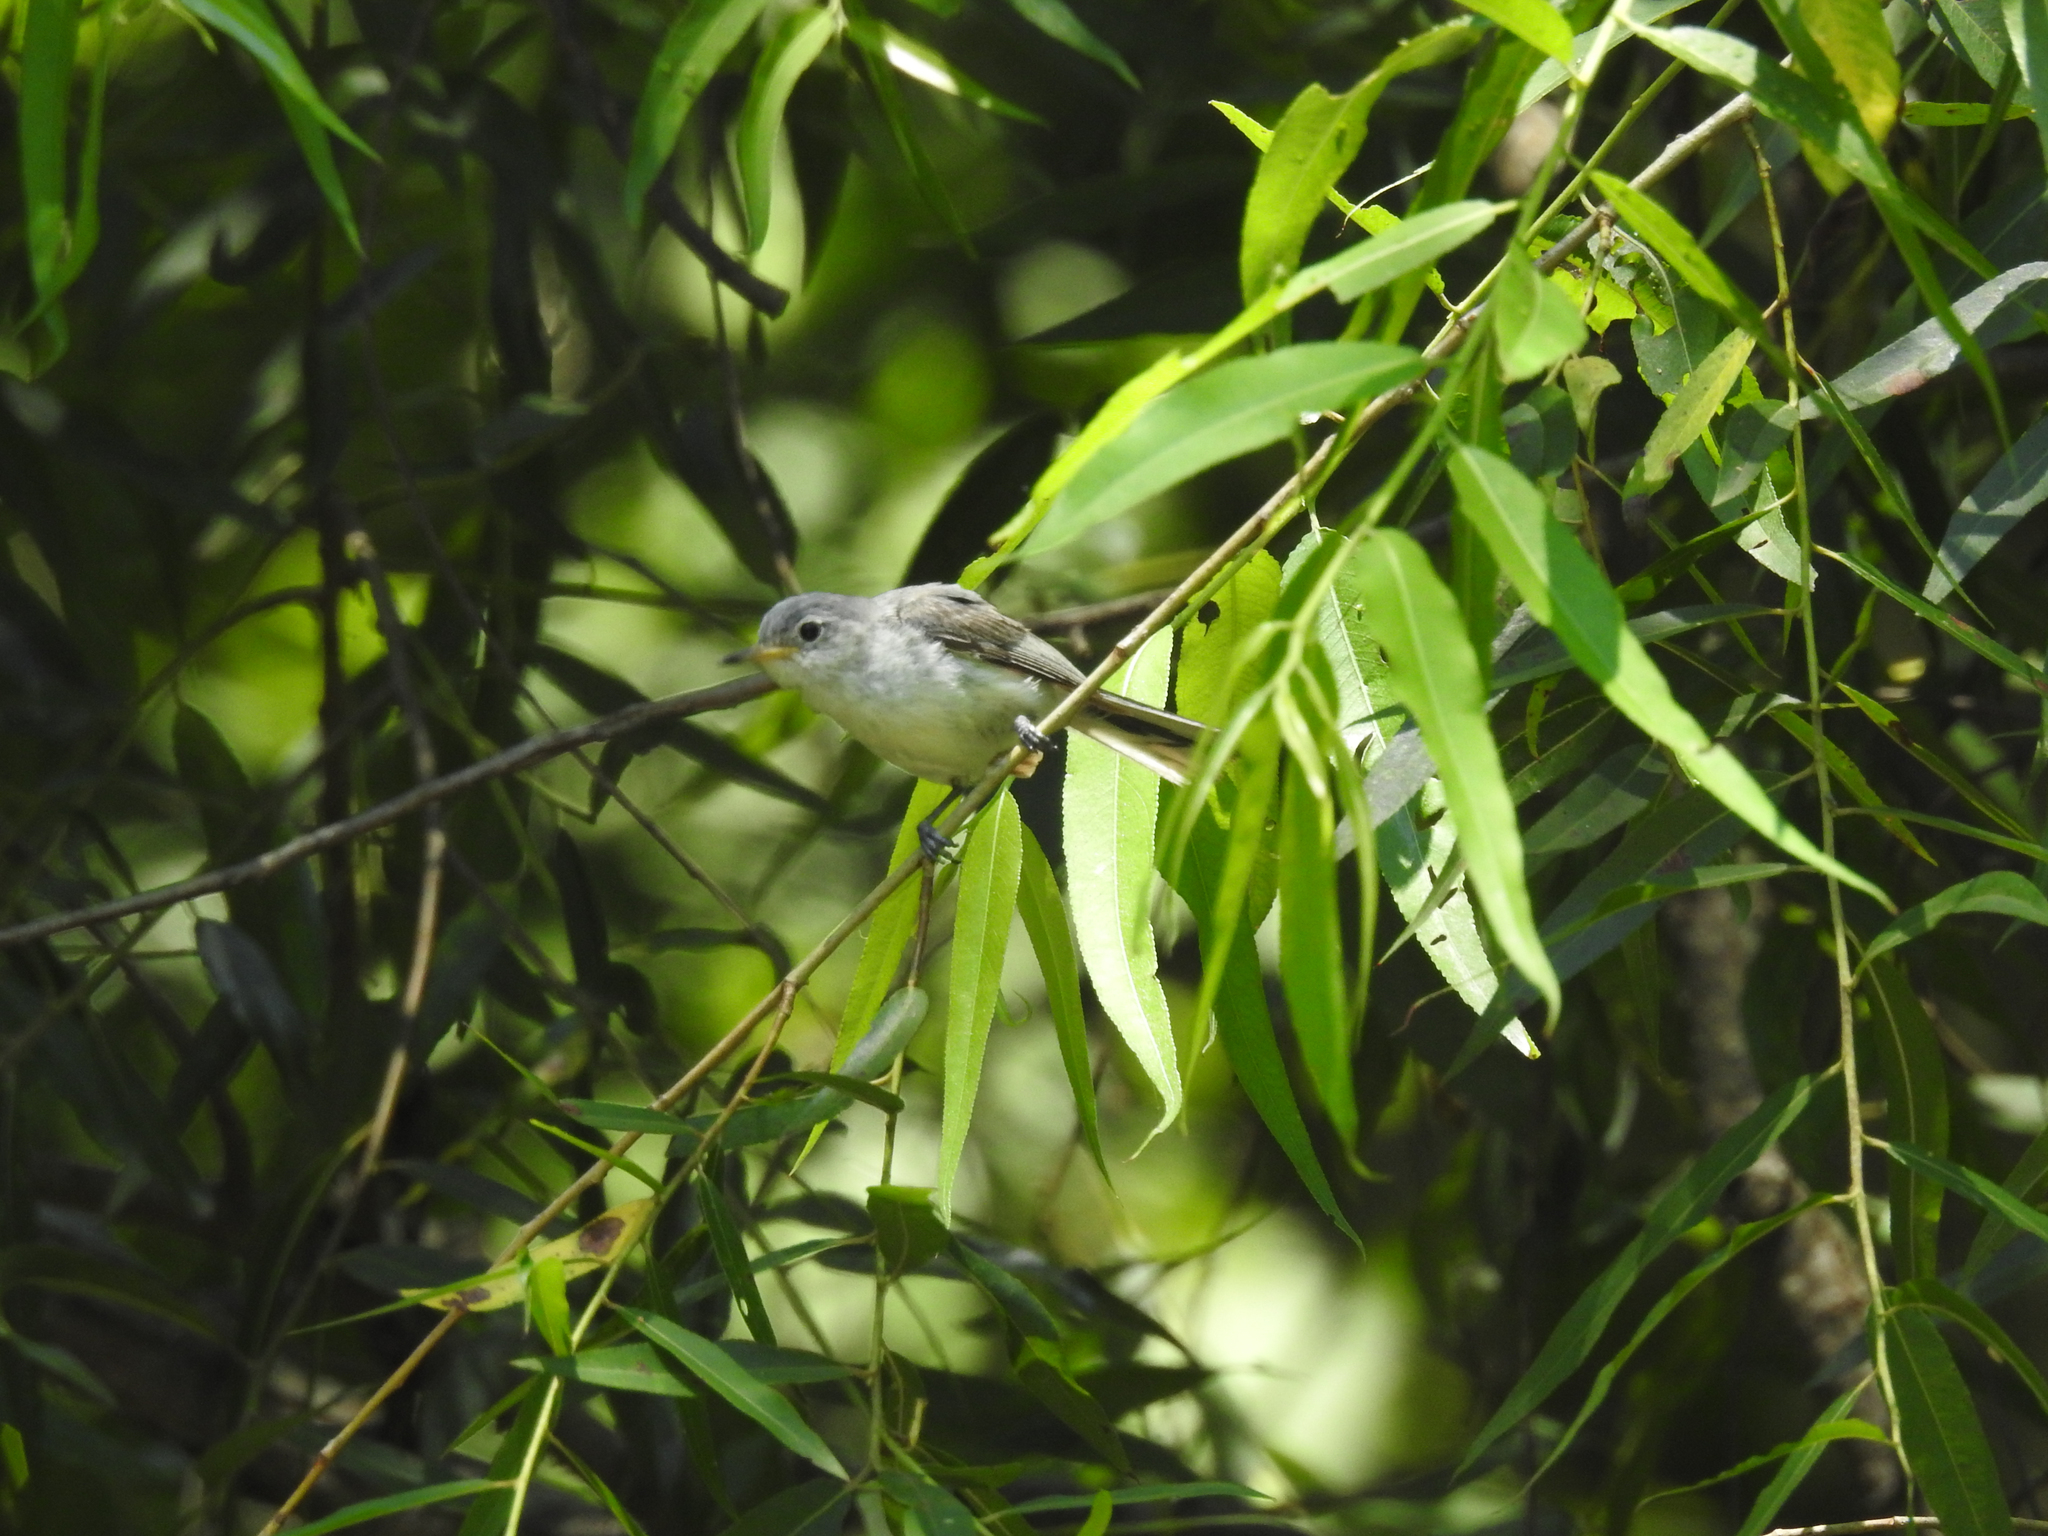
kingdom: Animalia
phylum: Chordata
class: Aves
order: Passeriformes
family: Polioptilidae
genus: Polioptila
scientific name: Polioptila caerulea
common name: Blue-gray gnatcatcher
